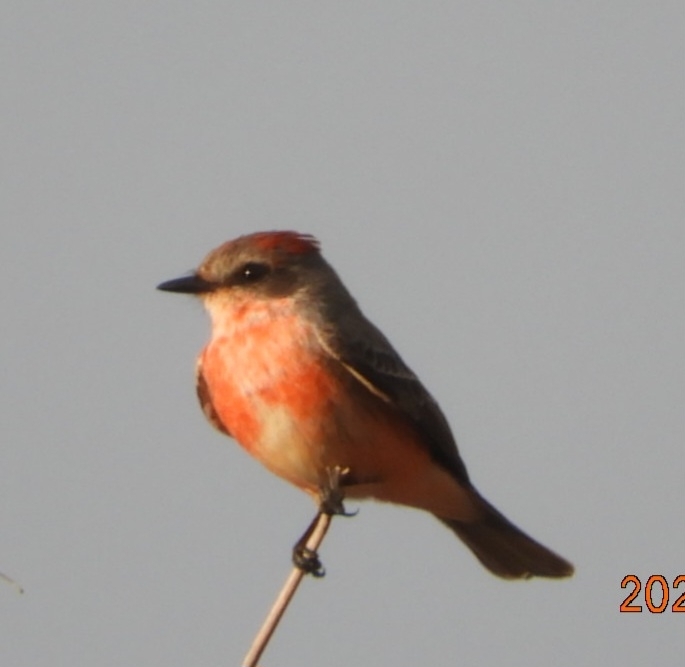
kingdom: Animalia
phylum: Chordata
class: Aves
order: Passeriformes
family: Tyrannidae
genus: Pyrocephalus
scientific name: Pyrocephalus rubinus
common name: Vermilion flycatcher
